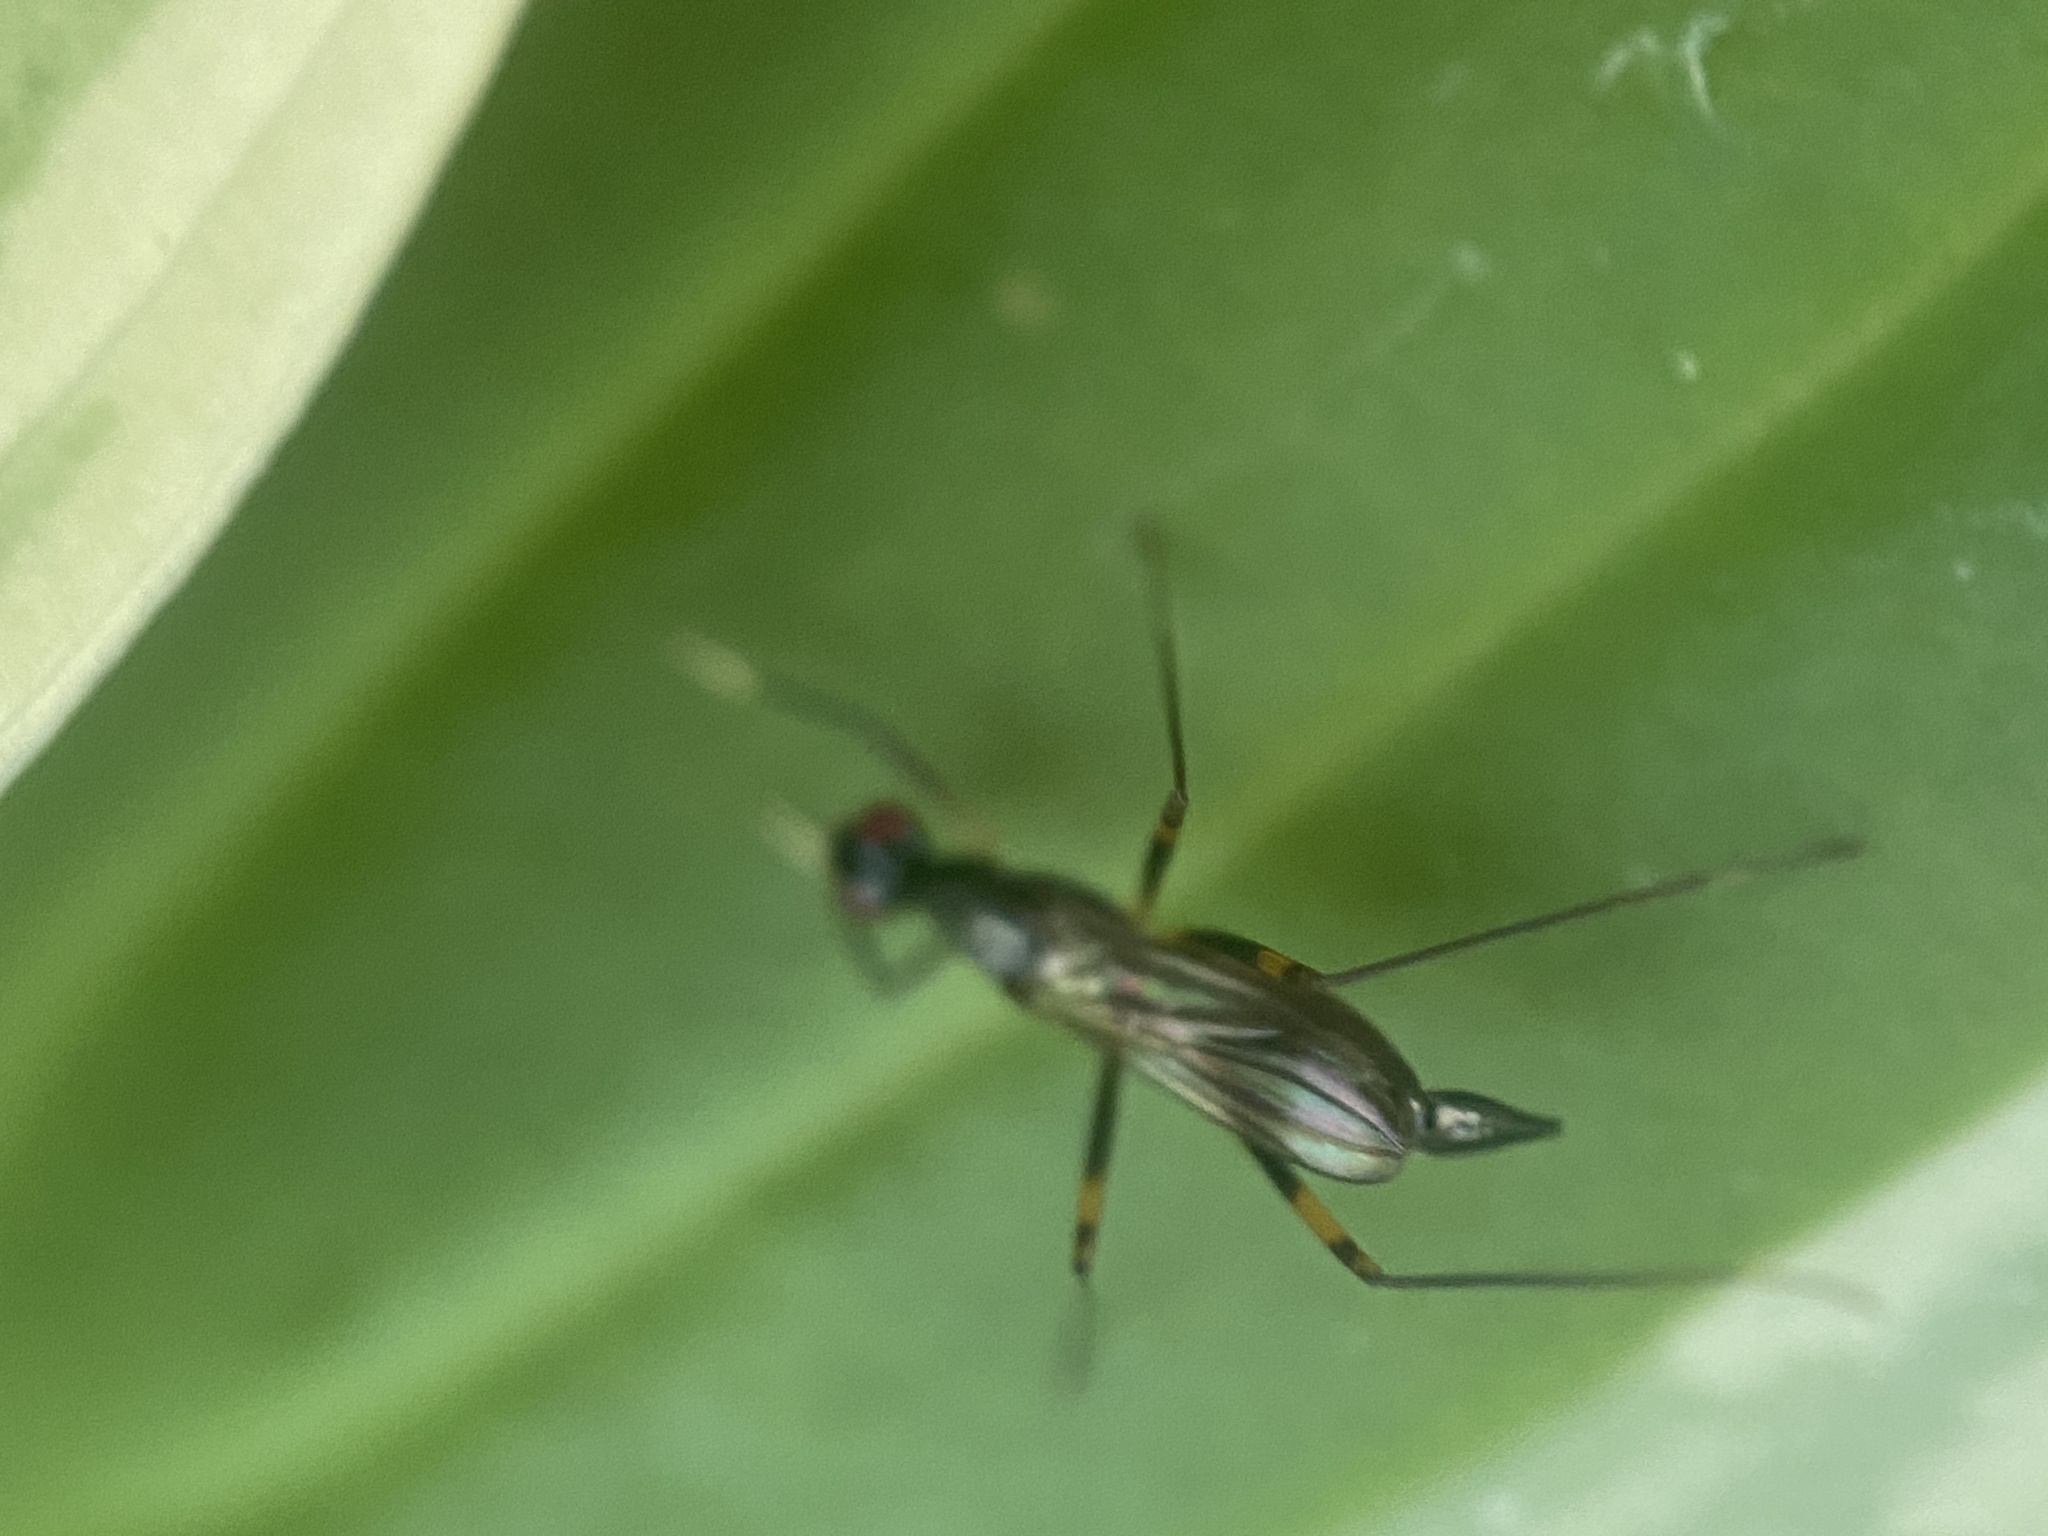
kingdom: Animalia
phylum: Arthropoda
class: Insecta
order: Diptera
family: Micropezidae
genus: Rainieria
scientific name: Rainieria antennaepes
